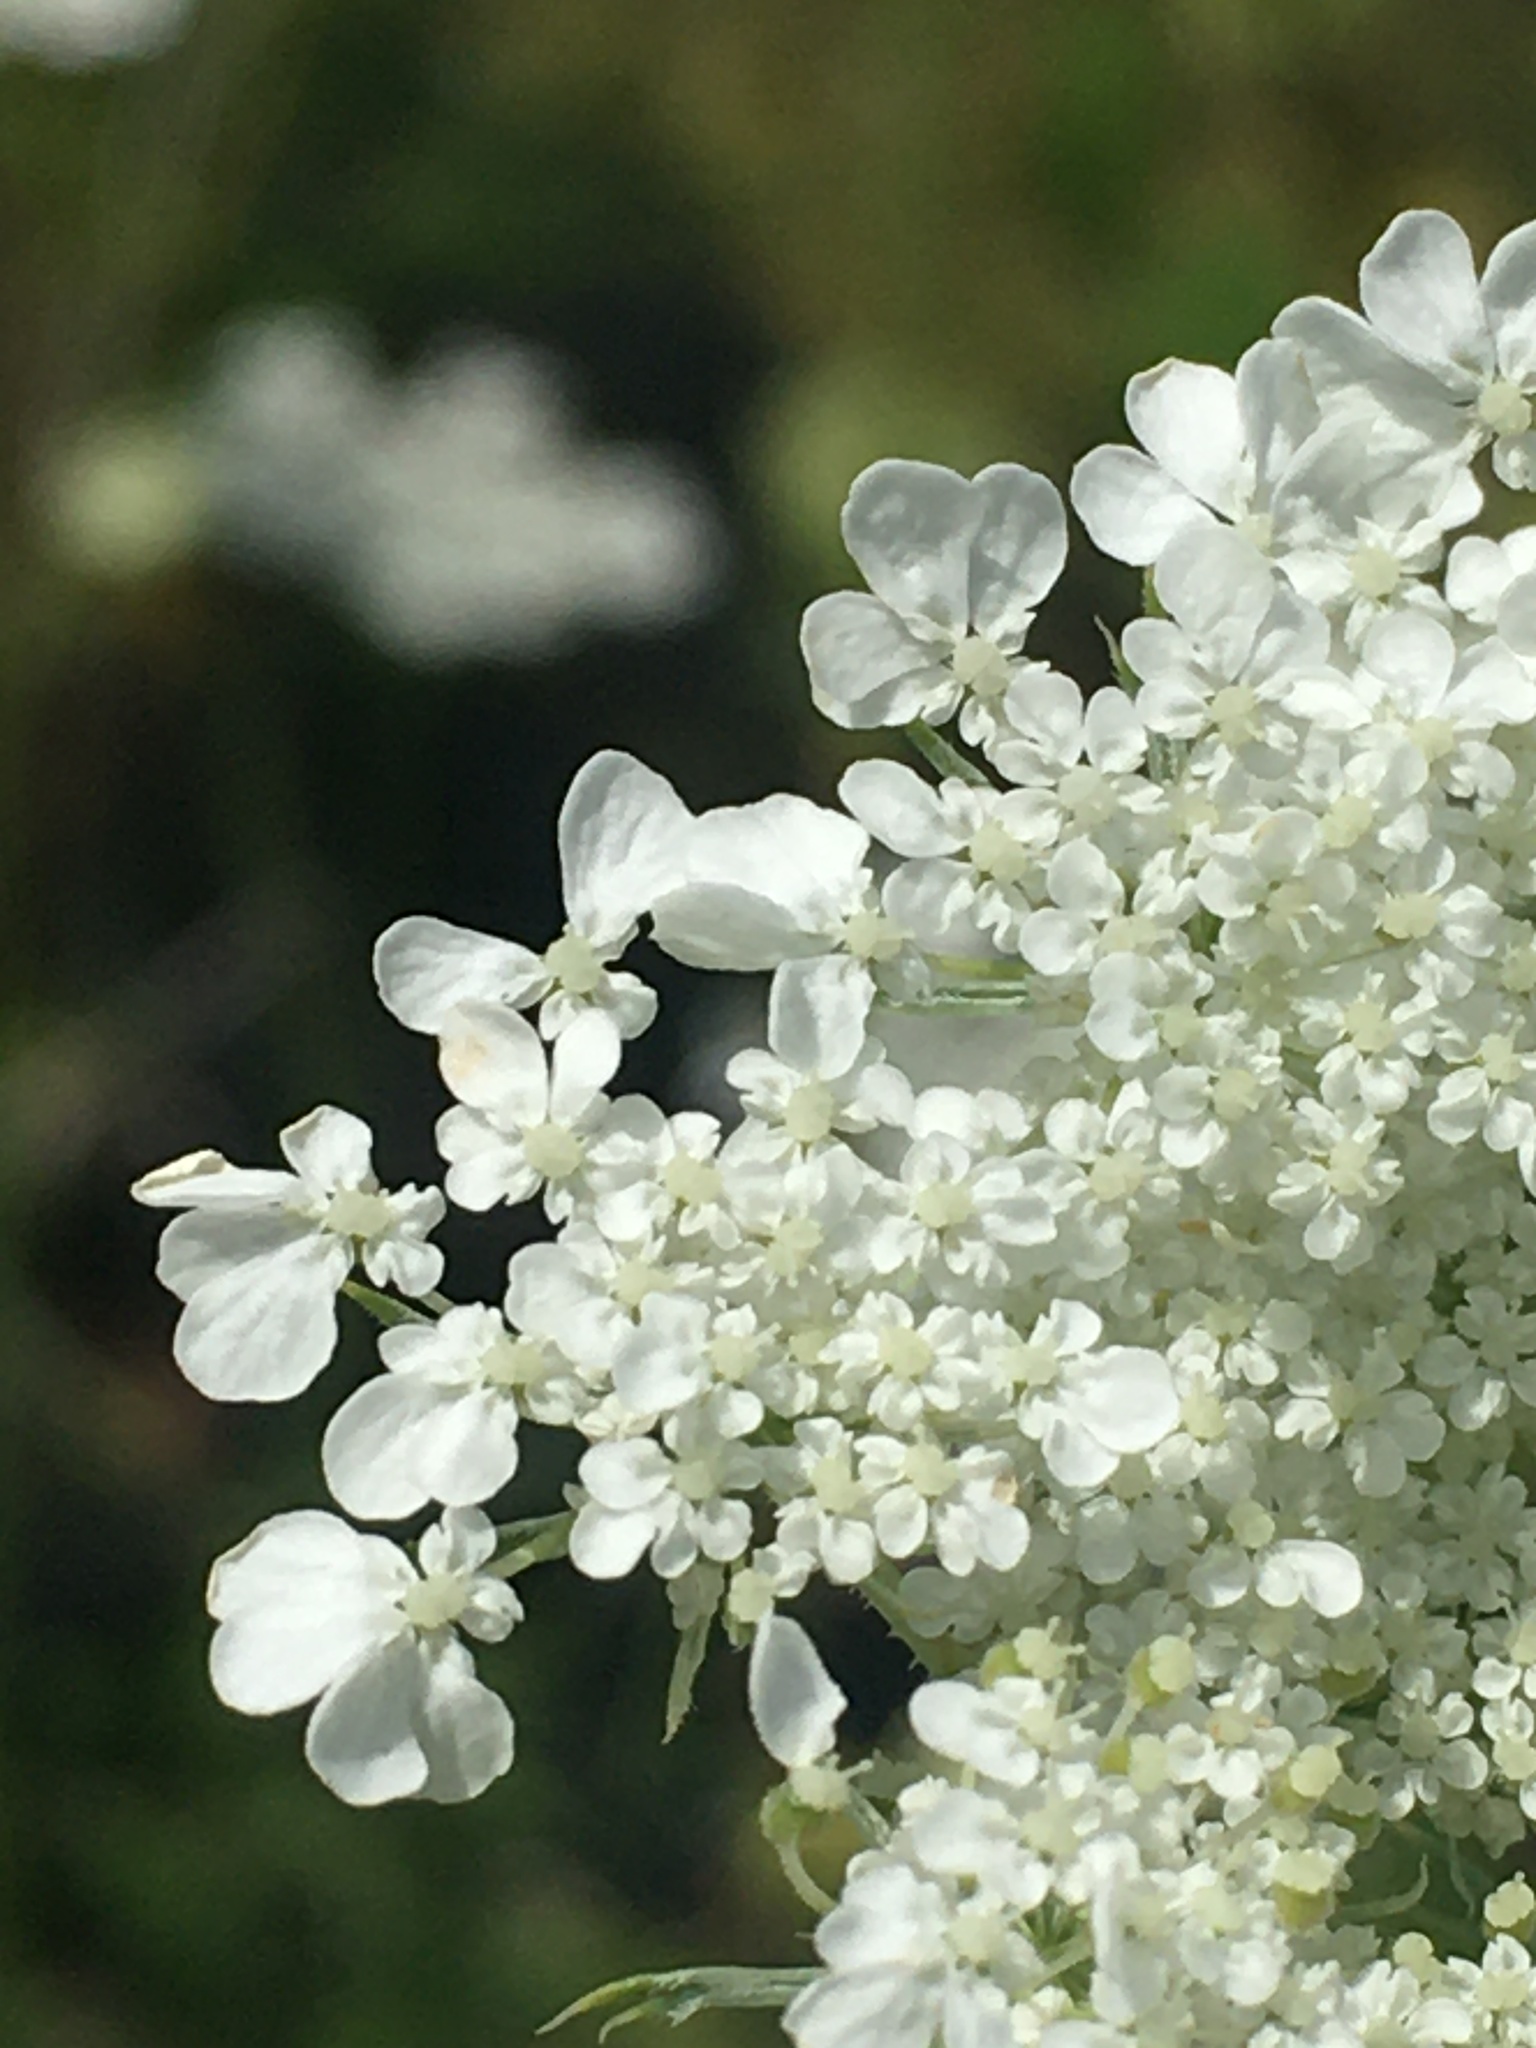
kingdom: Plantae
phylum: Tracheophyta
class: Magnoliopsida
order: Apiales
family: Apiaceae
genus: Daucus
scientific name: Daucus carota
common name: Wild carrot
